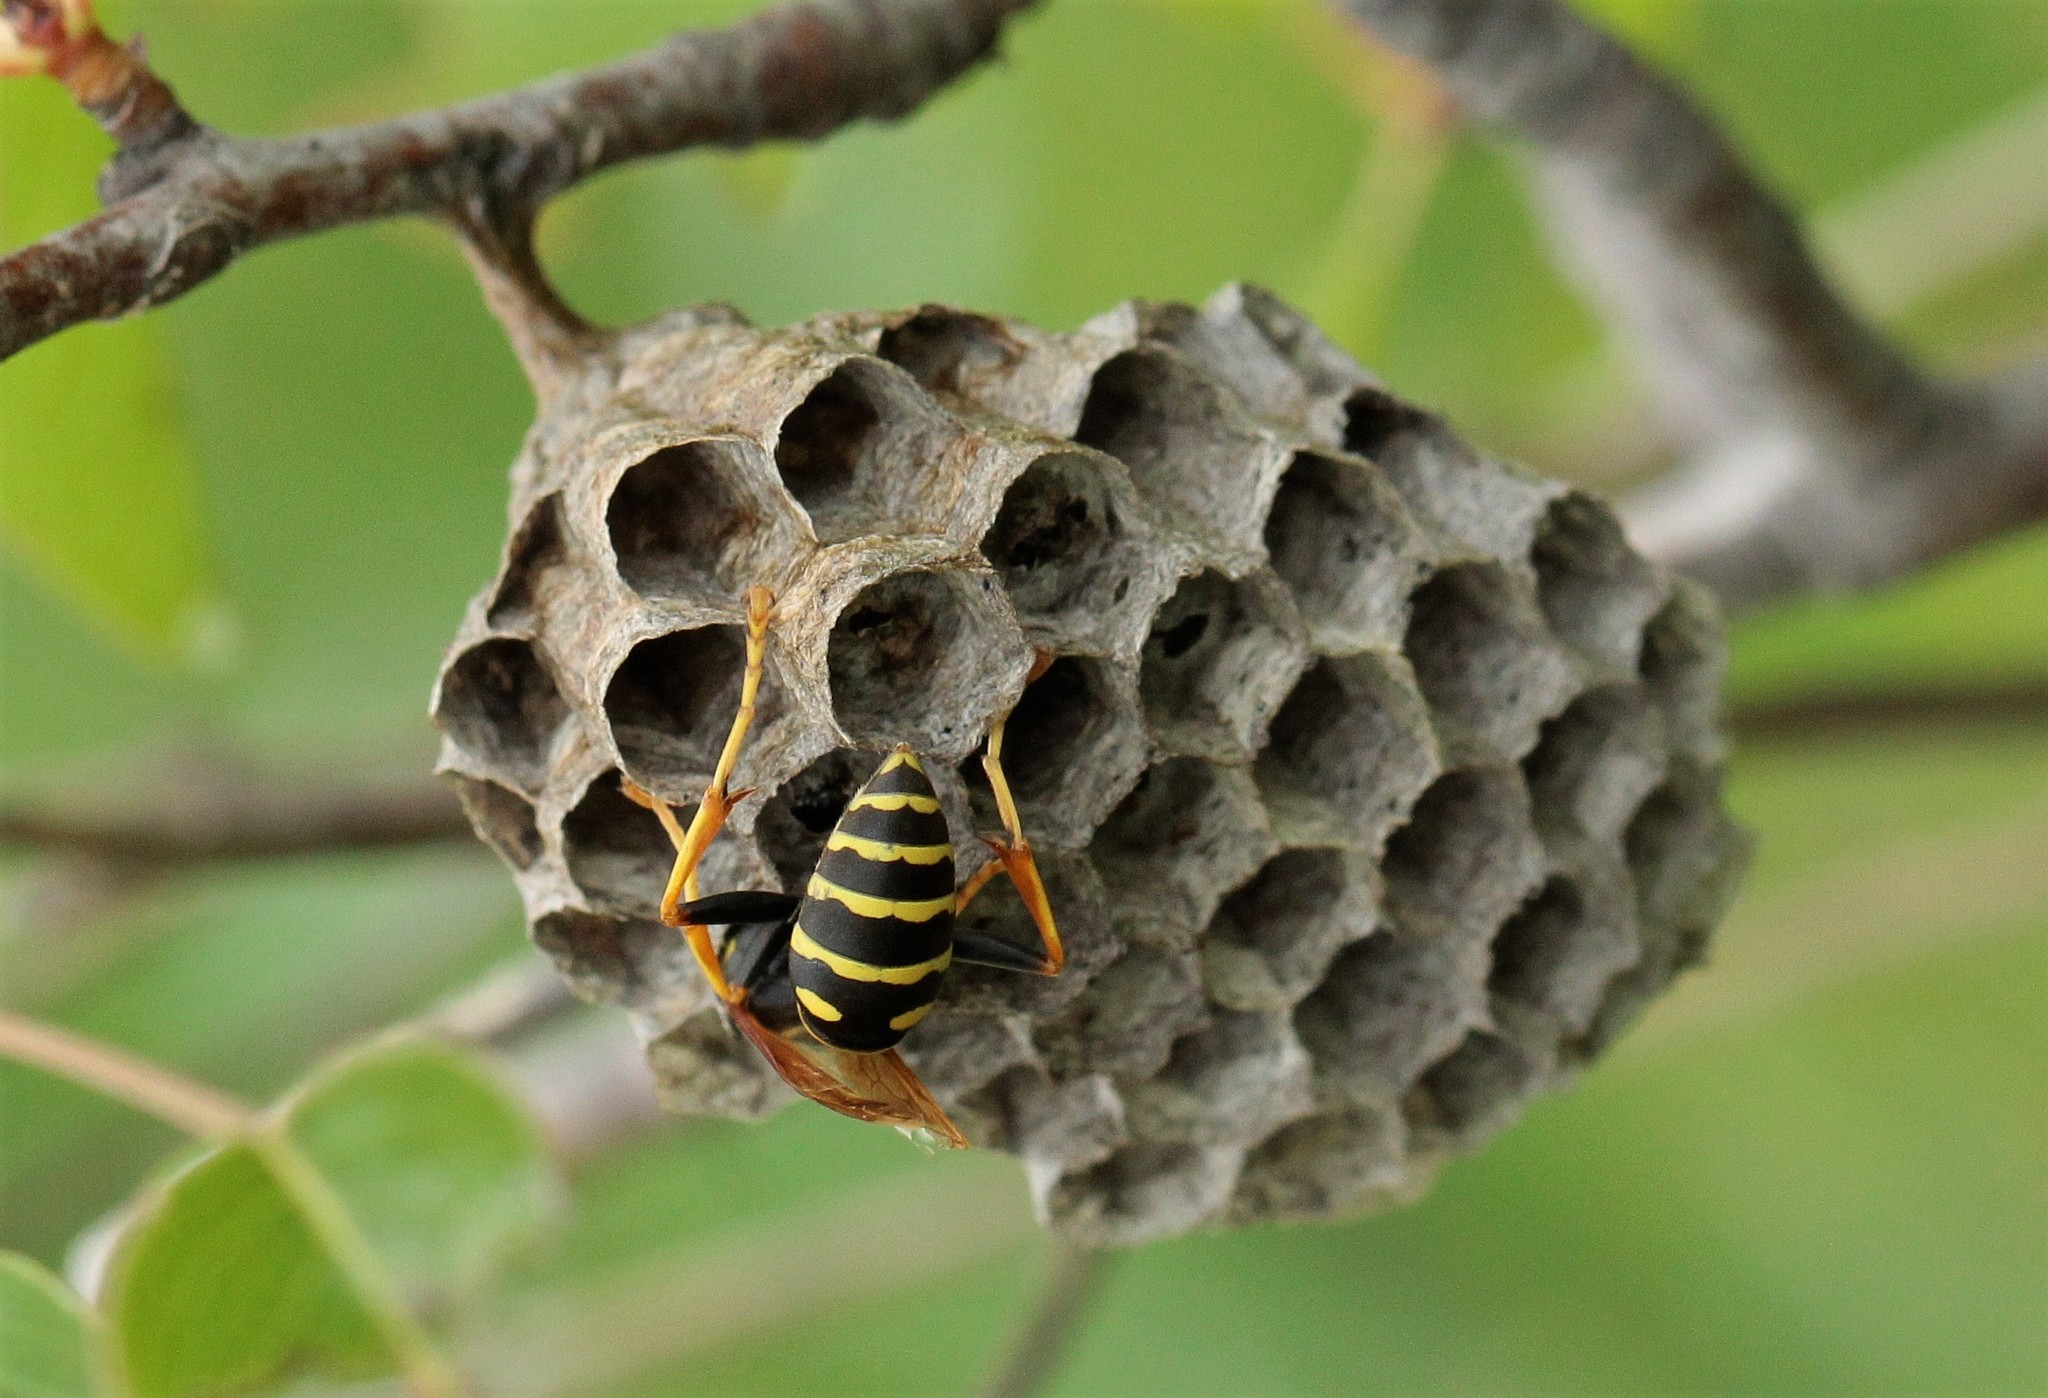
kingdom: Animalia
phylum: Arthropoda
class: Insecta
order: Hymenoptera
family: Eumenidae
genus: Polistes
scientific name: Polistes nimpha
